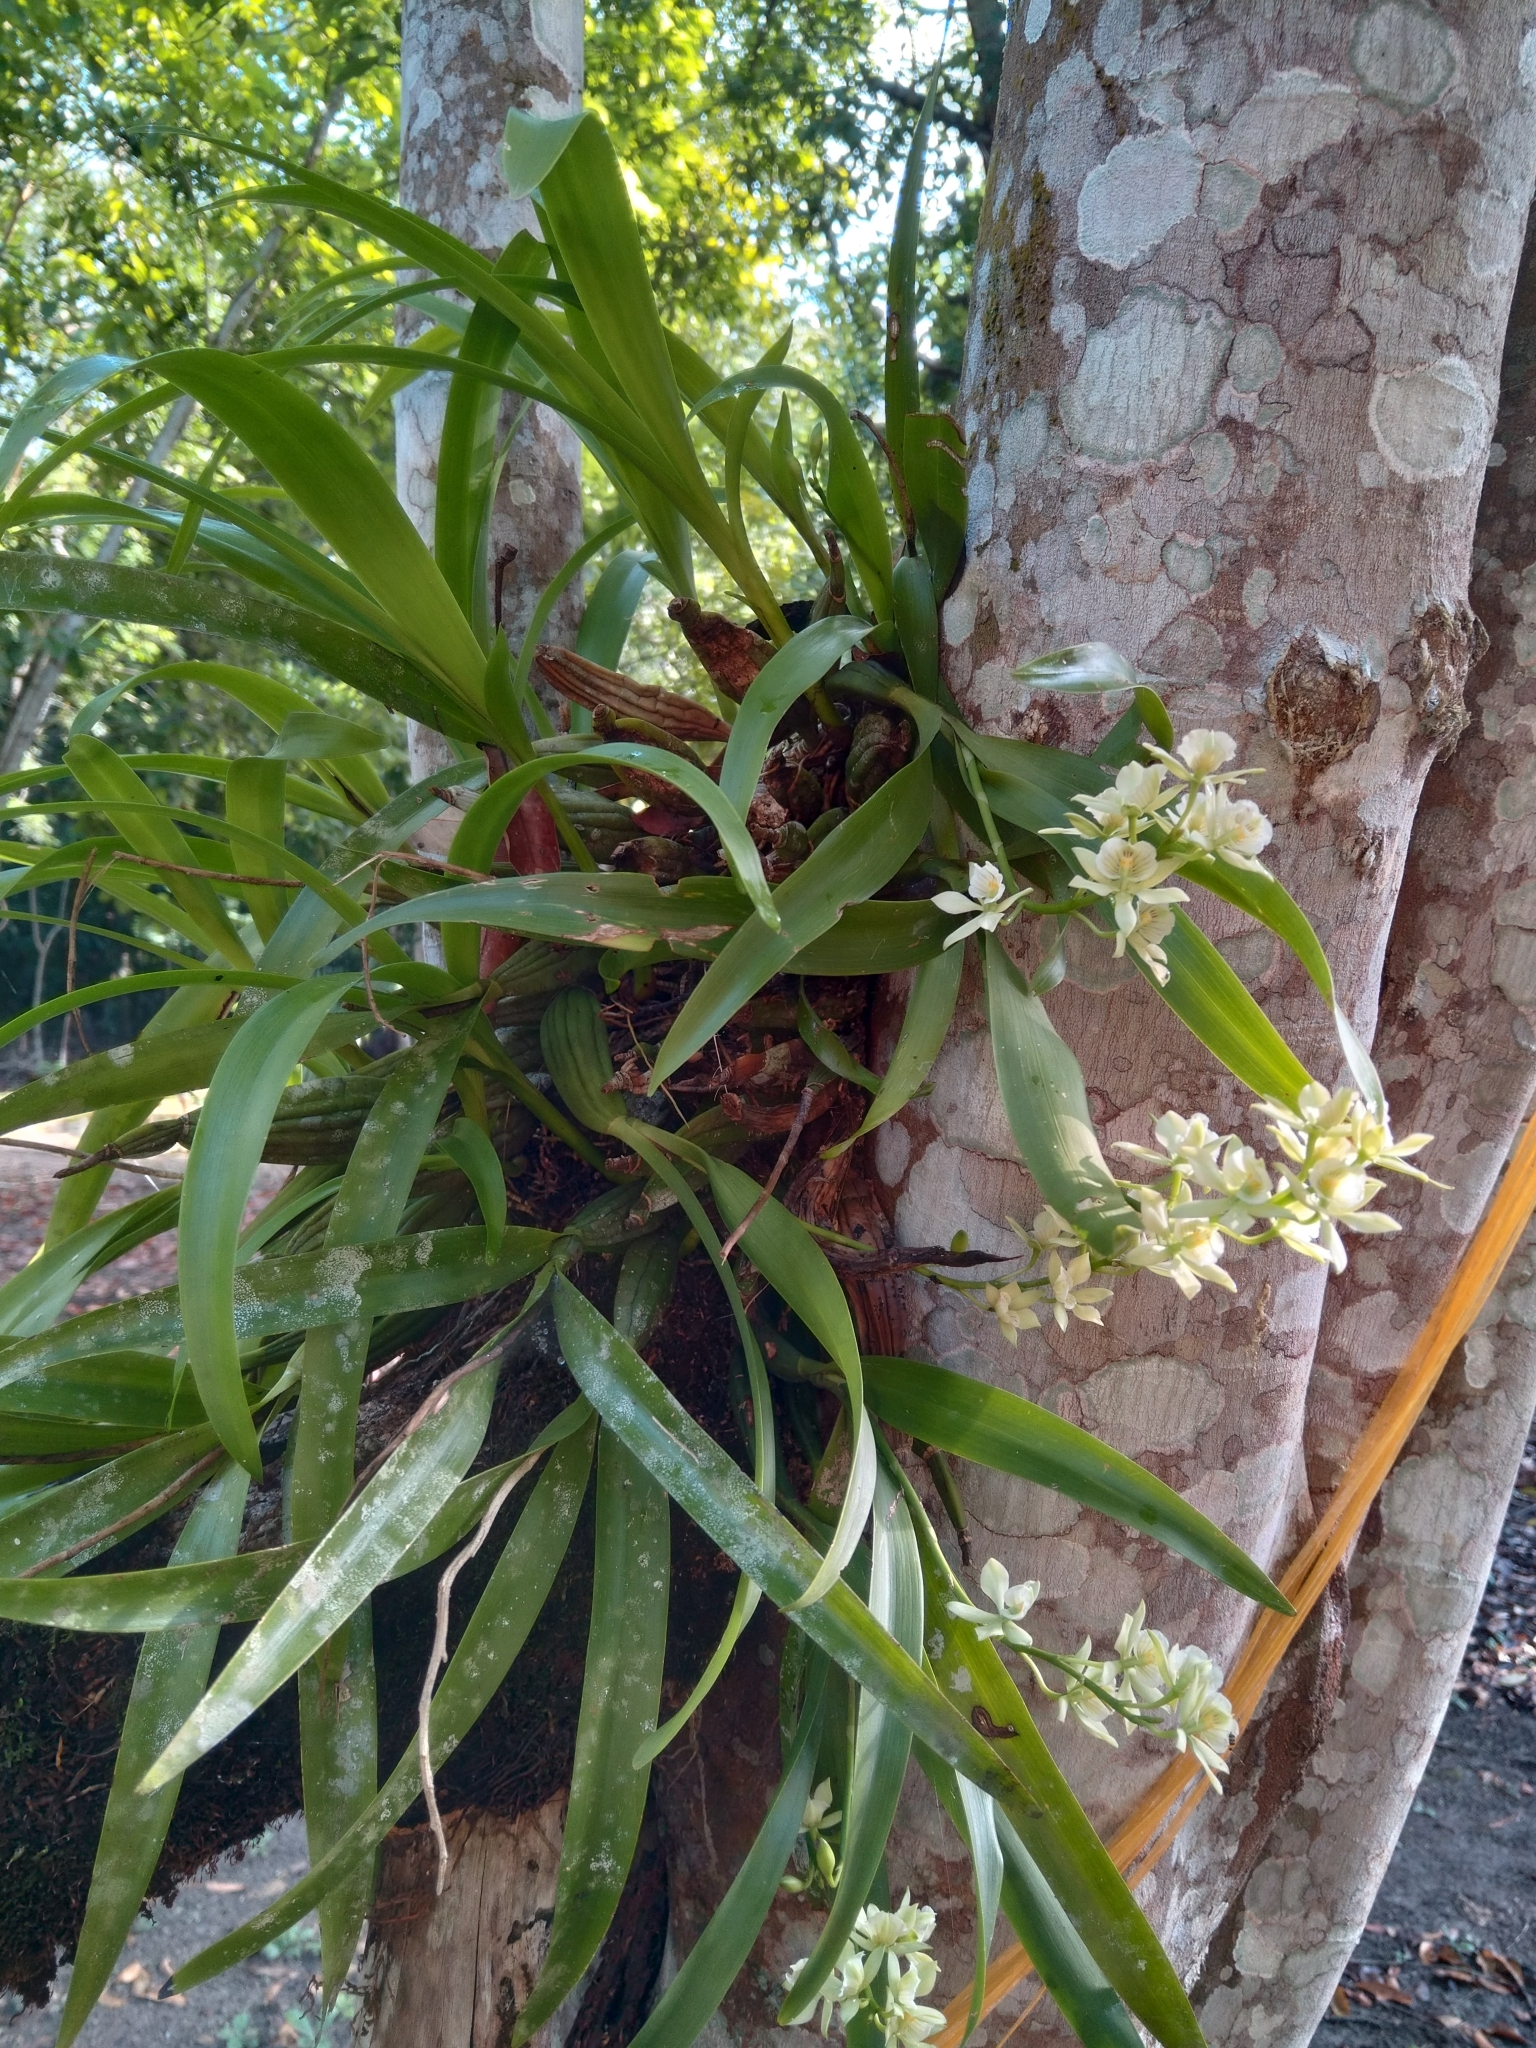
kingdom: Plantae
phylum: Tracheophyta
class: Liliopsida
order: Asparagales
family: Orchidaceae
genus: Prosthechea
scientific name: Prosthechea radiata
